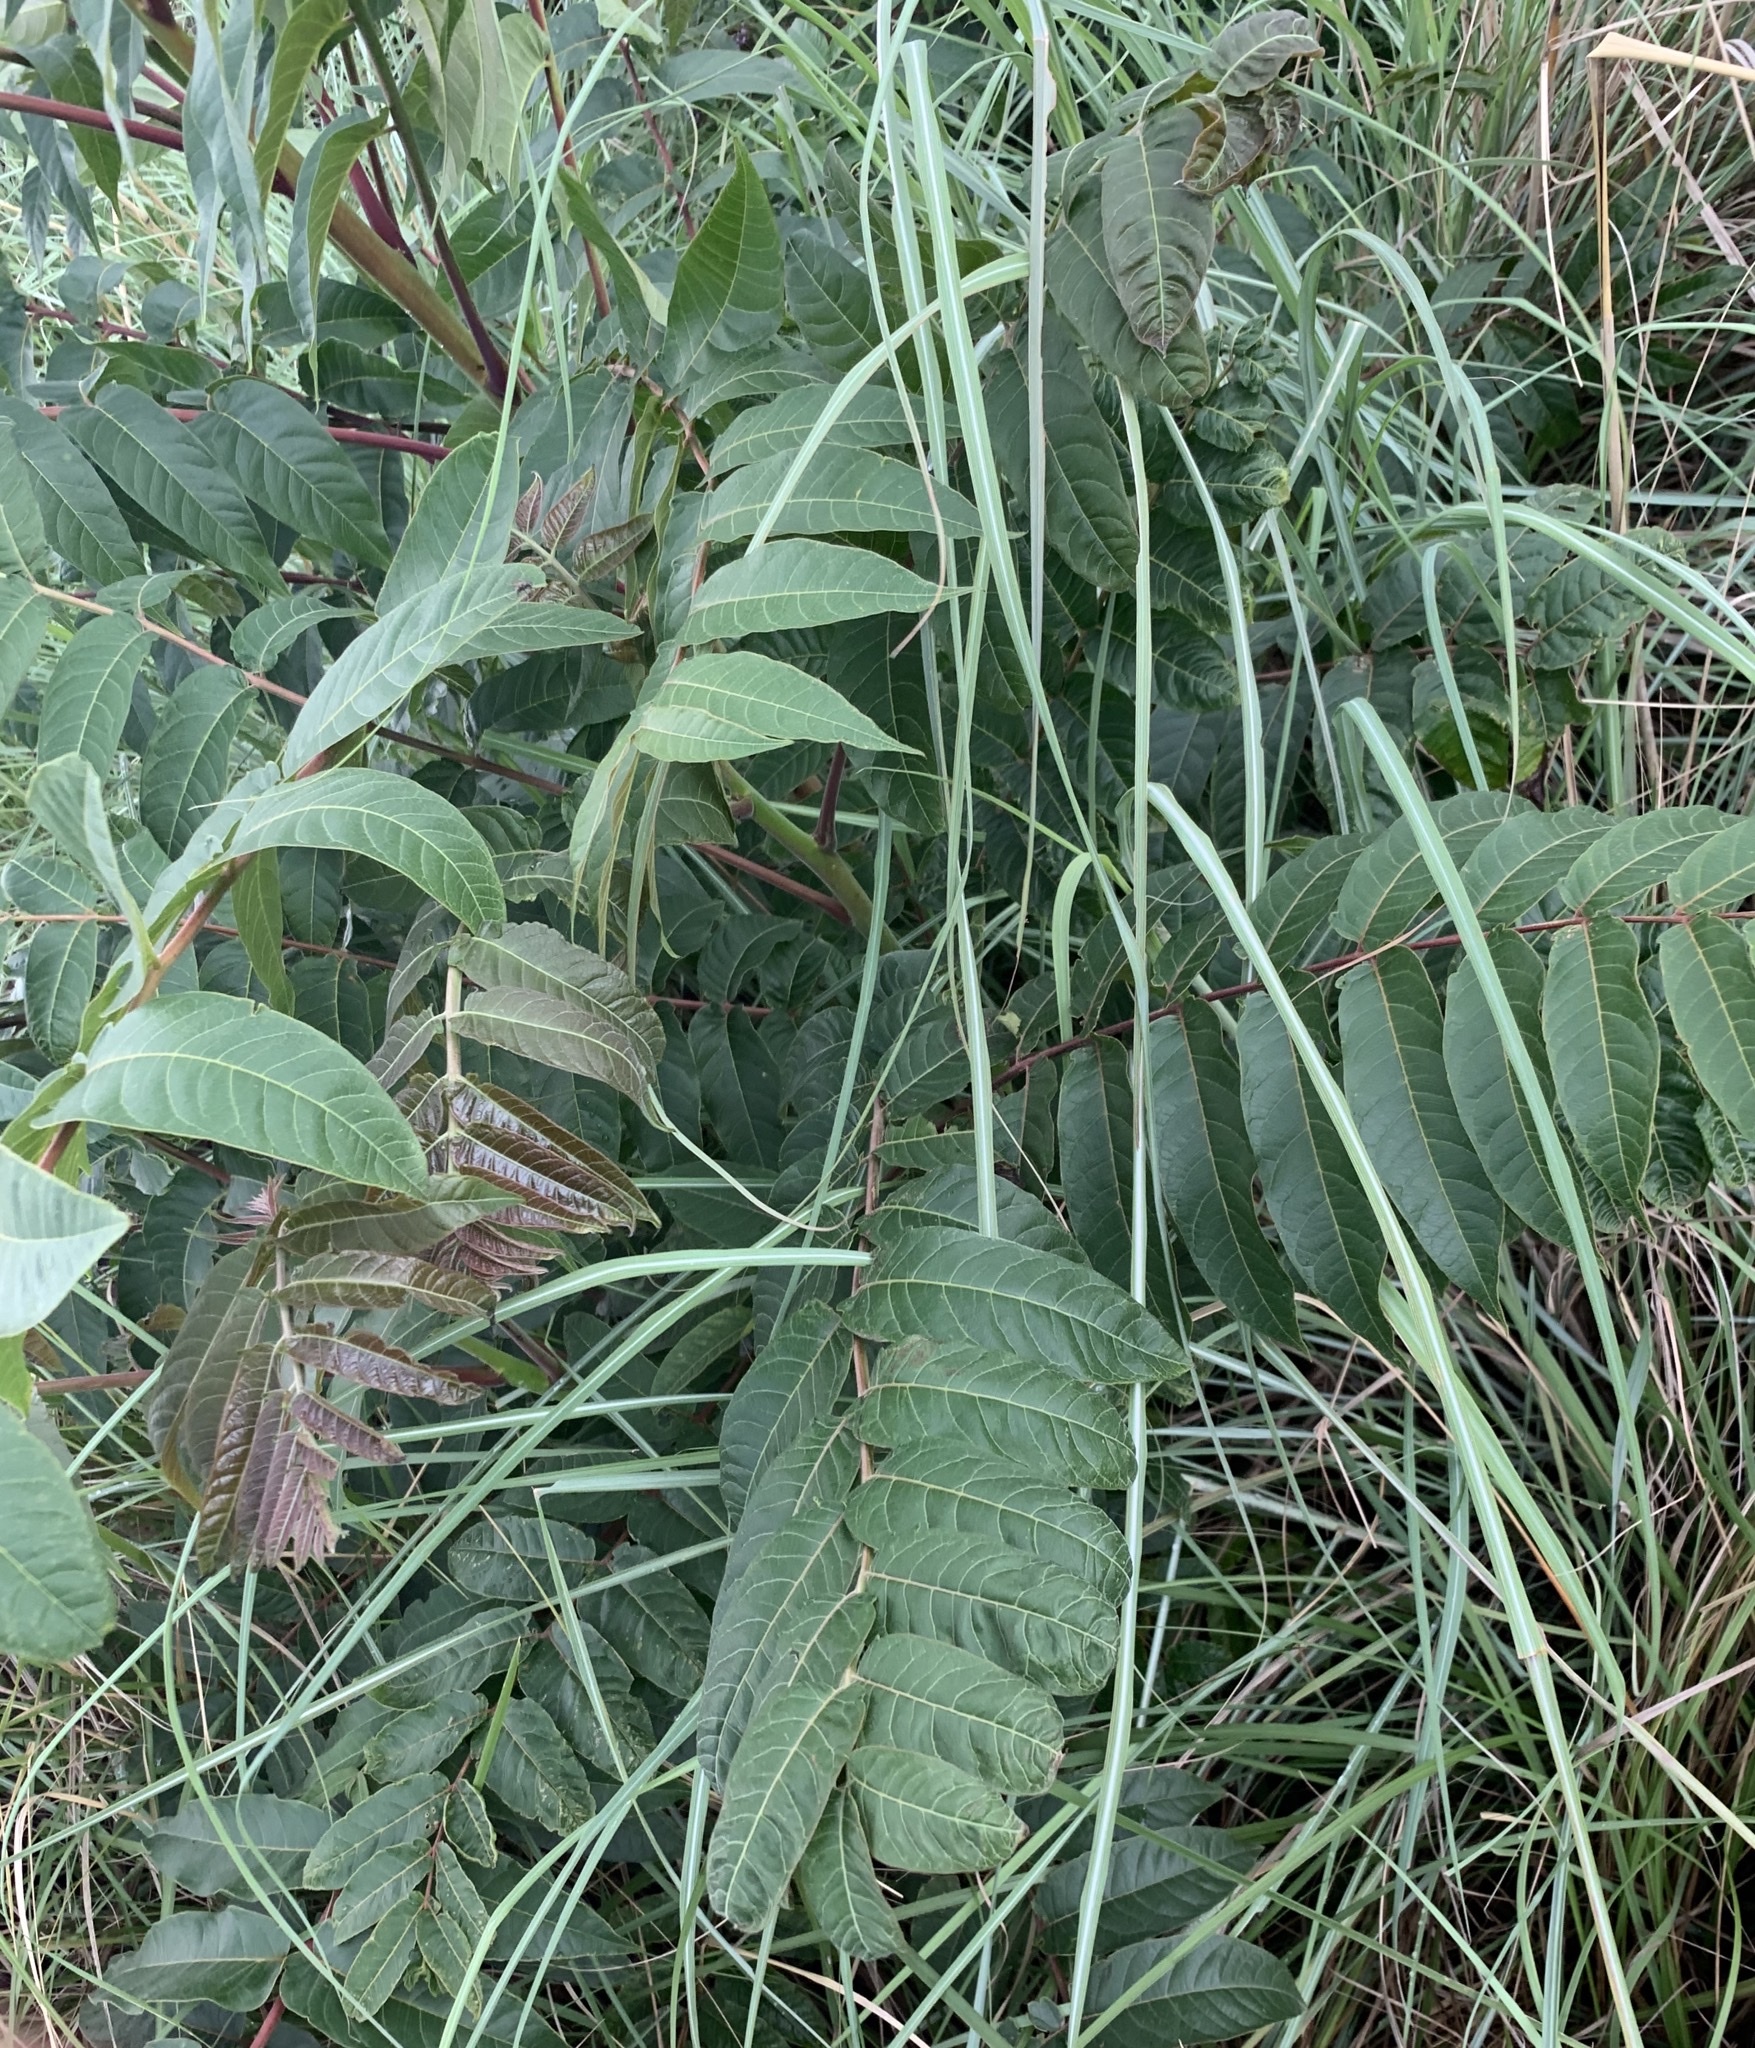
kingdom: Plantae
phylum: Tracheophyta
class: Magnoliopsida
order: Sapindales
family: Simaroubaceae
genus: Ailanthus
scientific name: Ailanthus altissima
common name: Tree-of-heaven
